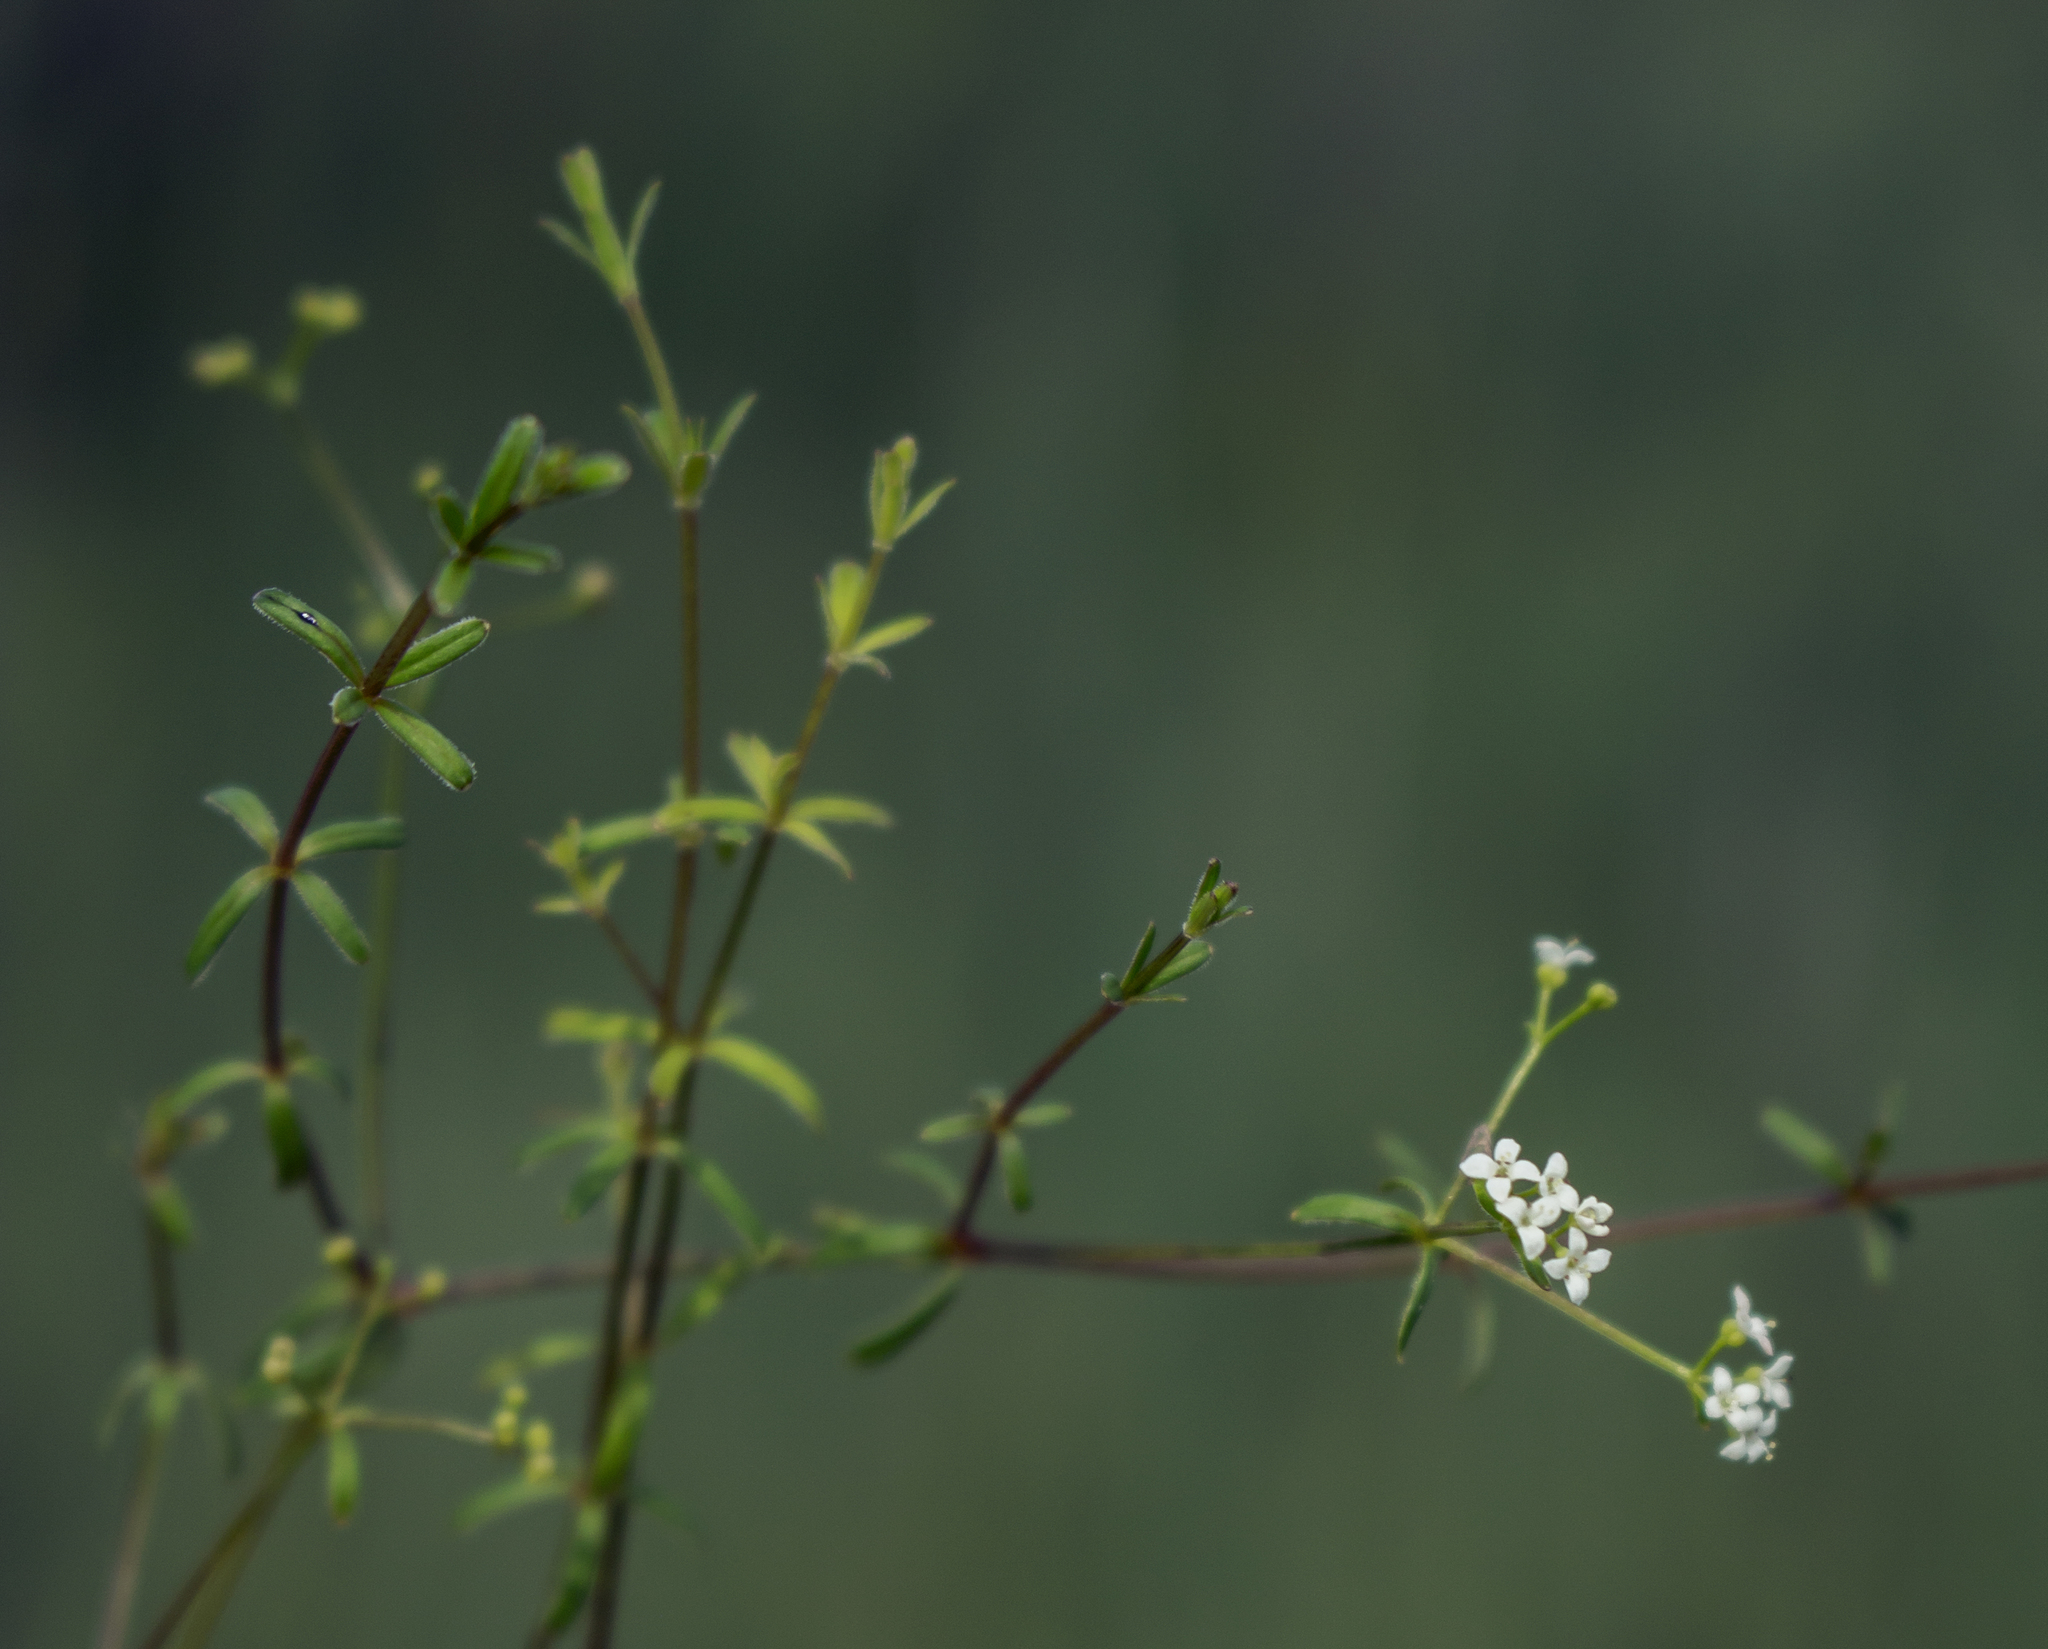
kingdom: Plantae
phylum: Tracheophyta
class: Magnoliopsida
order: Gentianales
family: Rubiaceae
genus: Galium
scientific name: Galium labradoricum
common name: Labrador bedstraw
